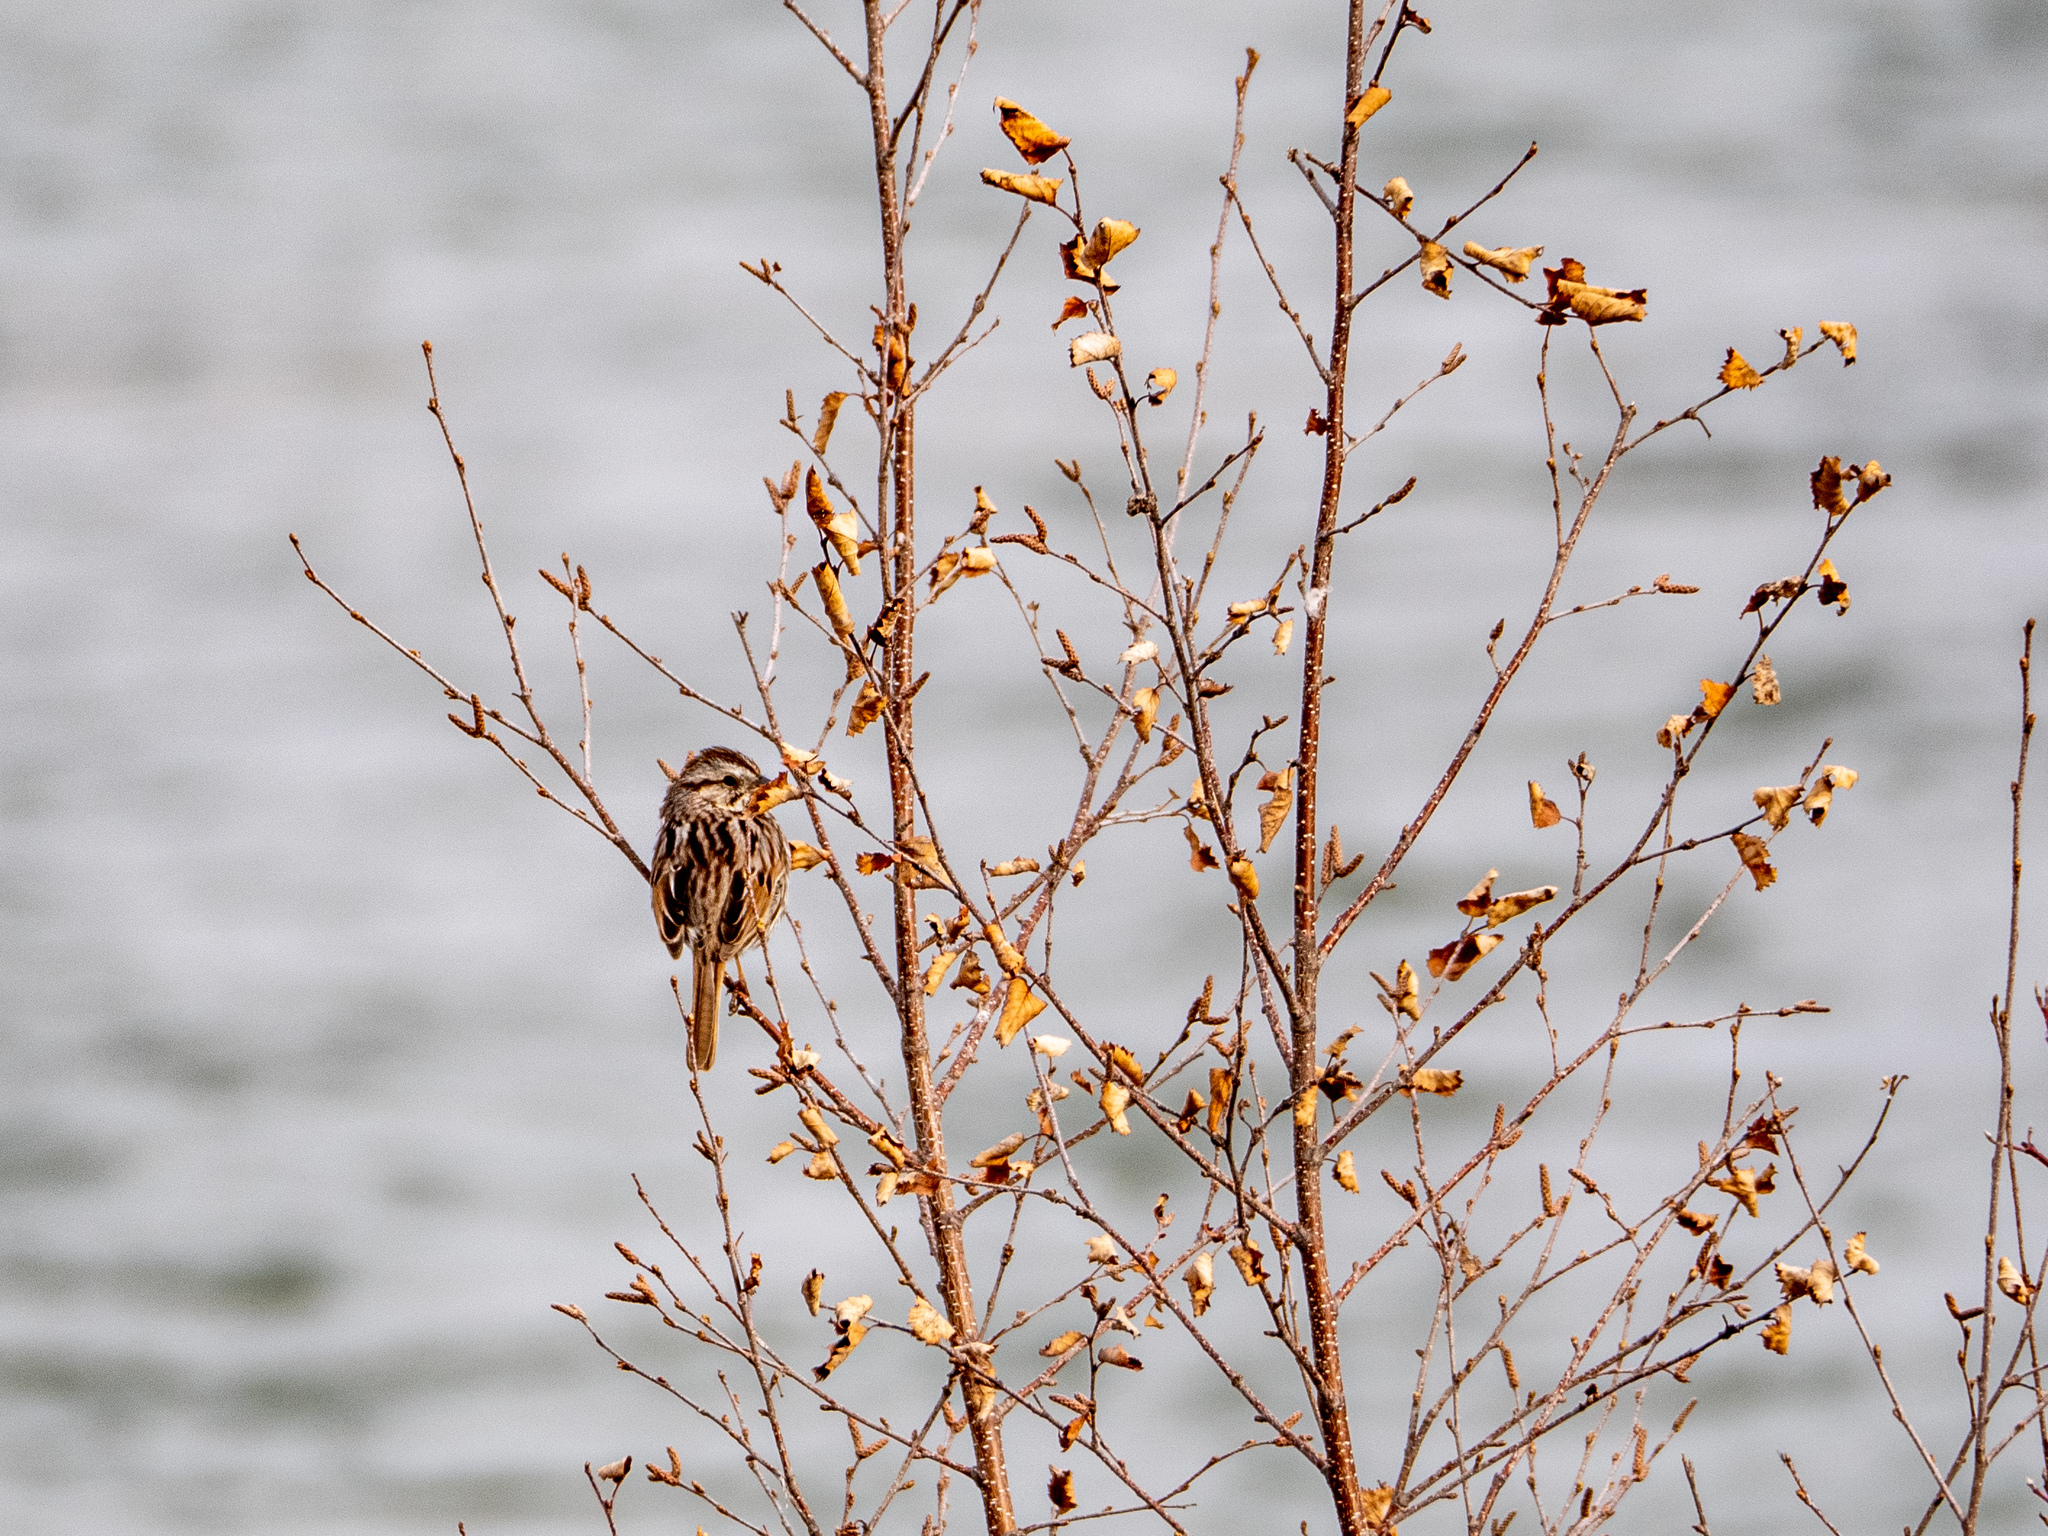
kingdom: Animalia
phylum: Chordata
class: Aves
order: Passeriformes
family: Passerellidae
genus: Melospiza
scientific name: Melospiza melodia
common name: Song sparrow
